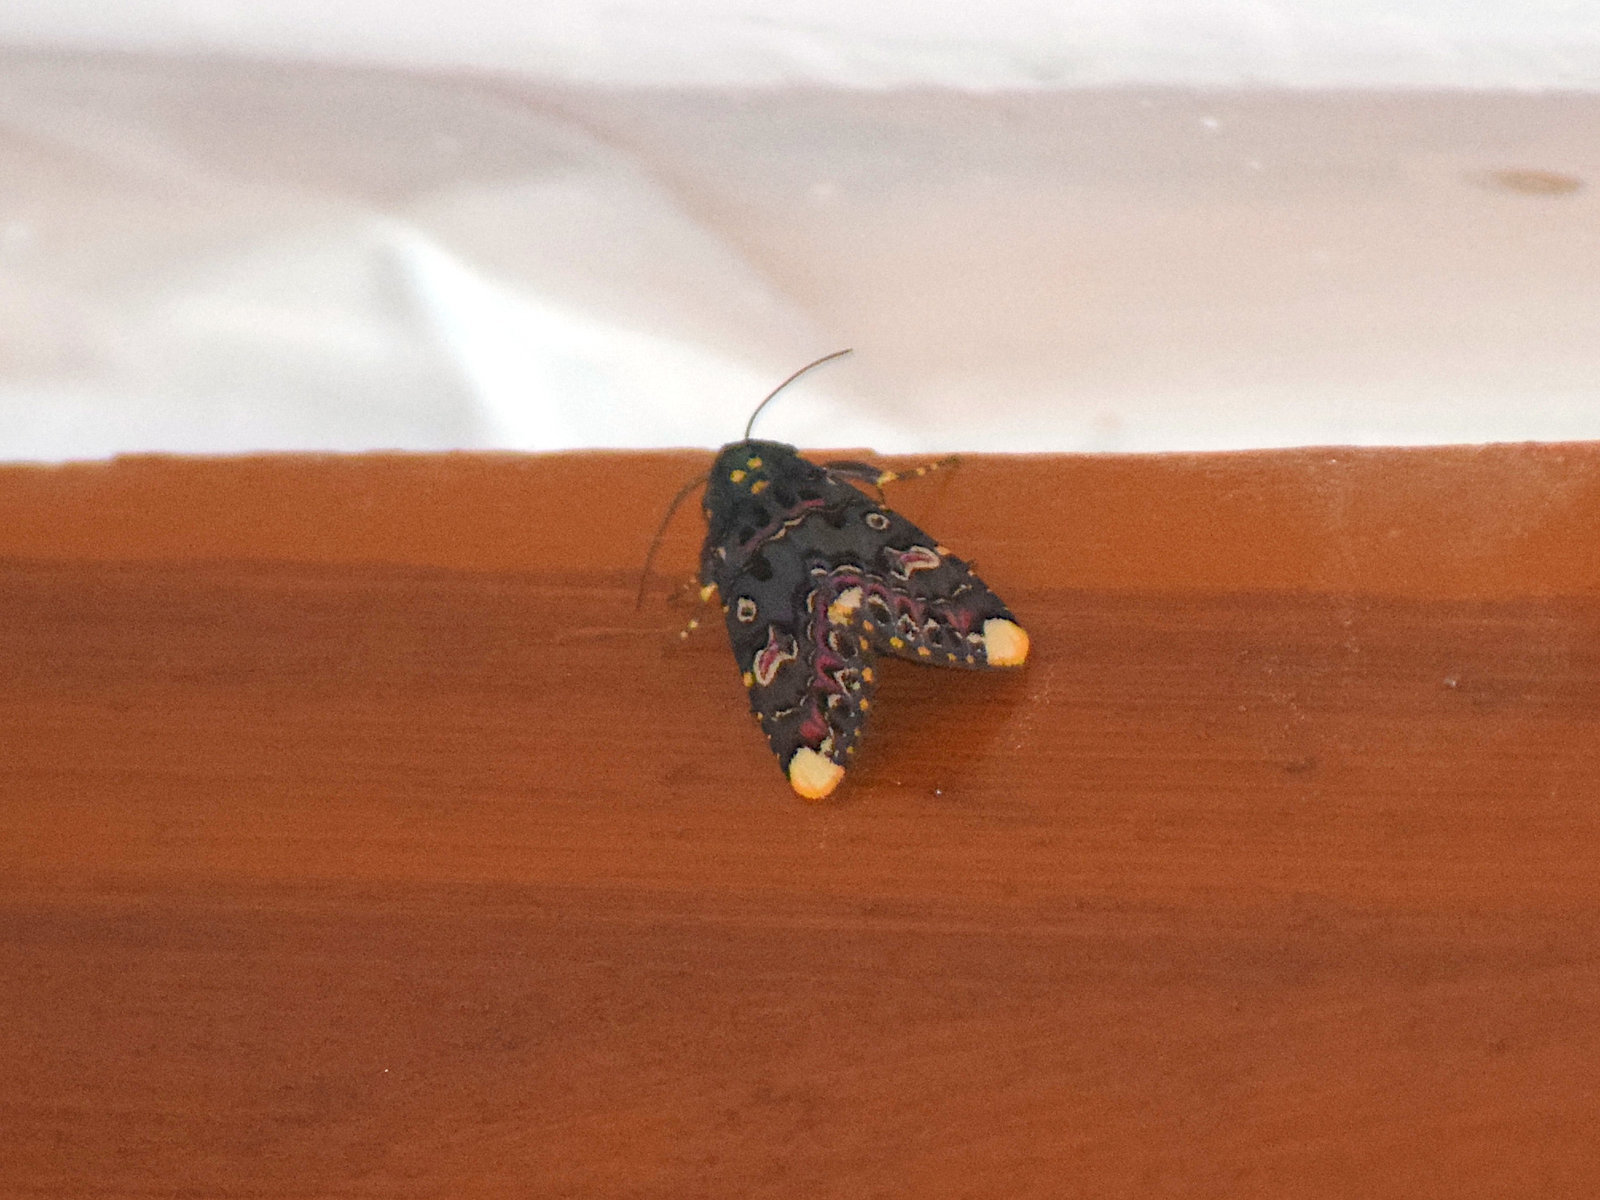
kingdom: Animalia
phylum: Arthropoda
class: Insecta
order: Lepidoptera
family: Noctuidae
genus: Polytela
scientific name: Polytela gloriosae
